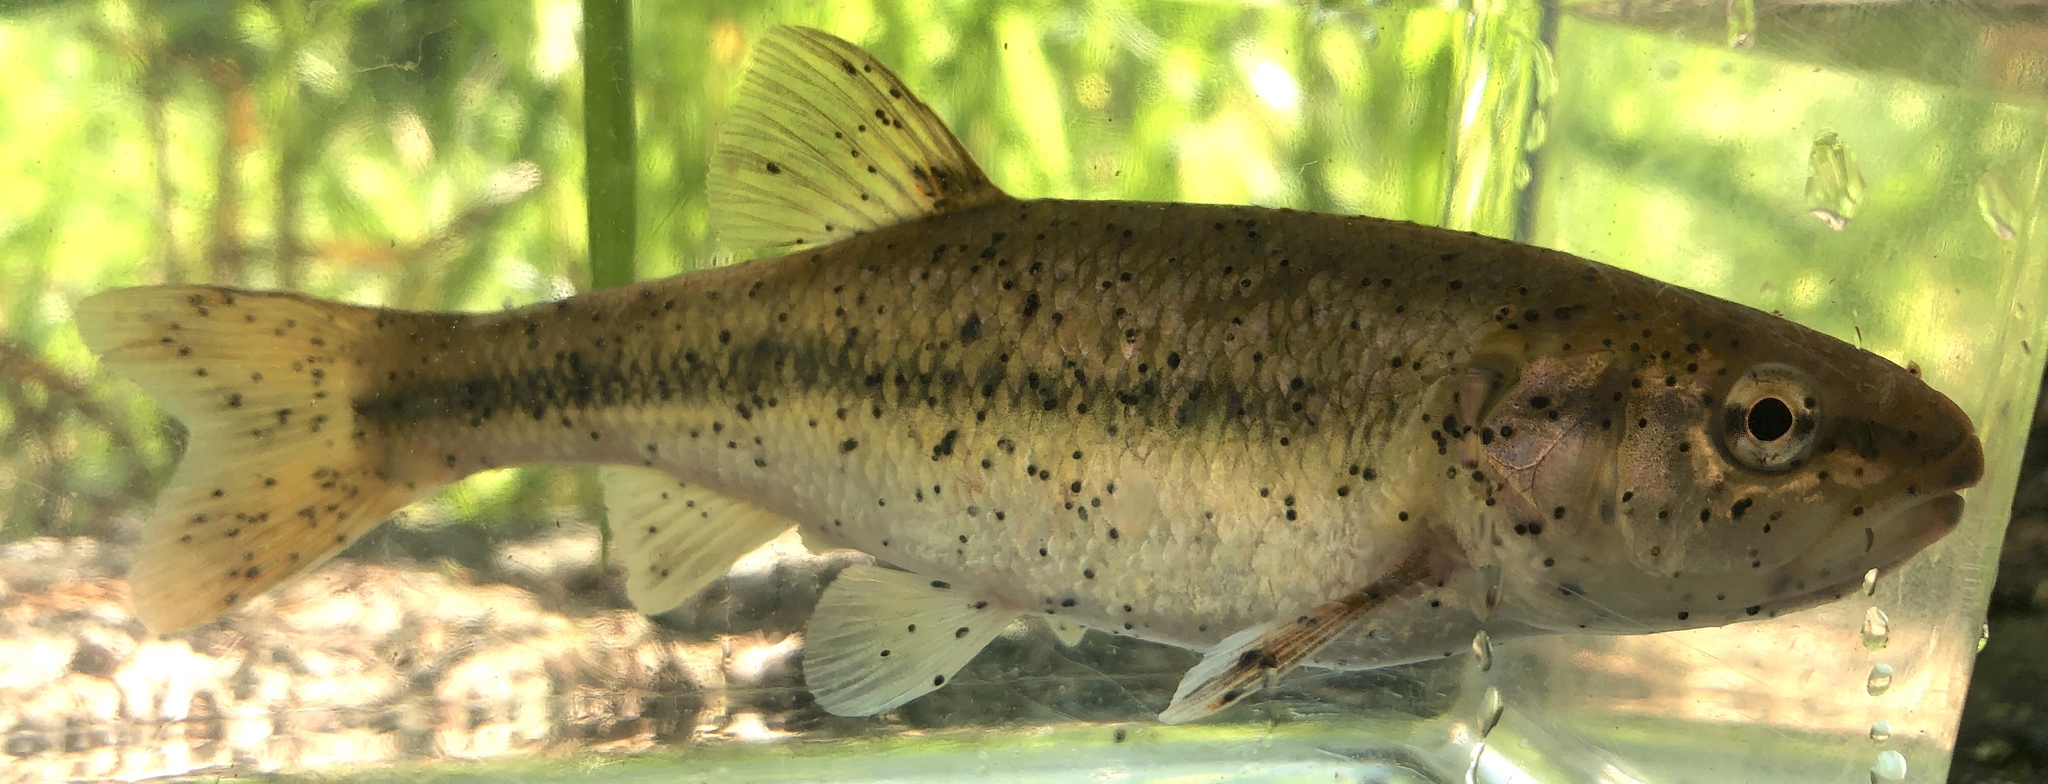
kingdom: Animalia
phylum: Chordata
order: Cypriniformes
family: Cyprinidae
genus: Semotilus
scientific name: Semotilus atromaculatus
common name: Creek chub
